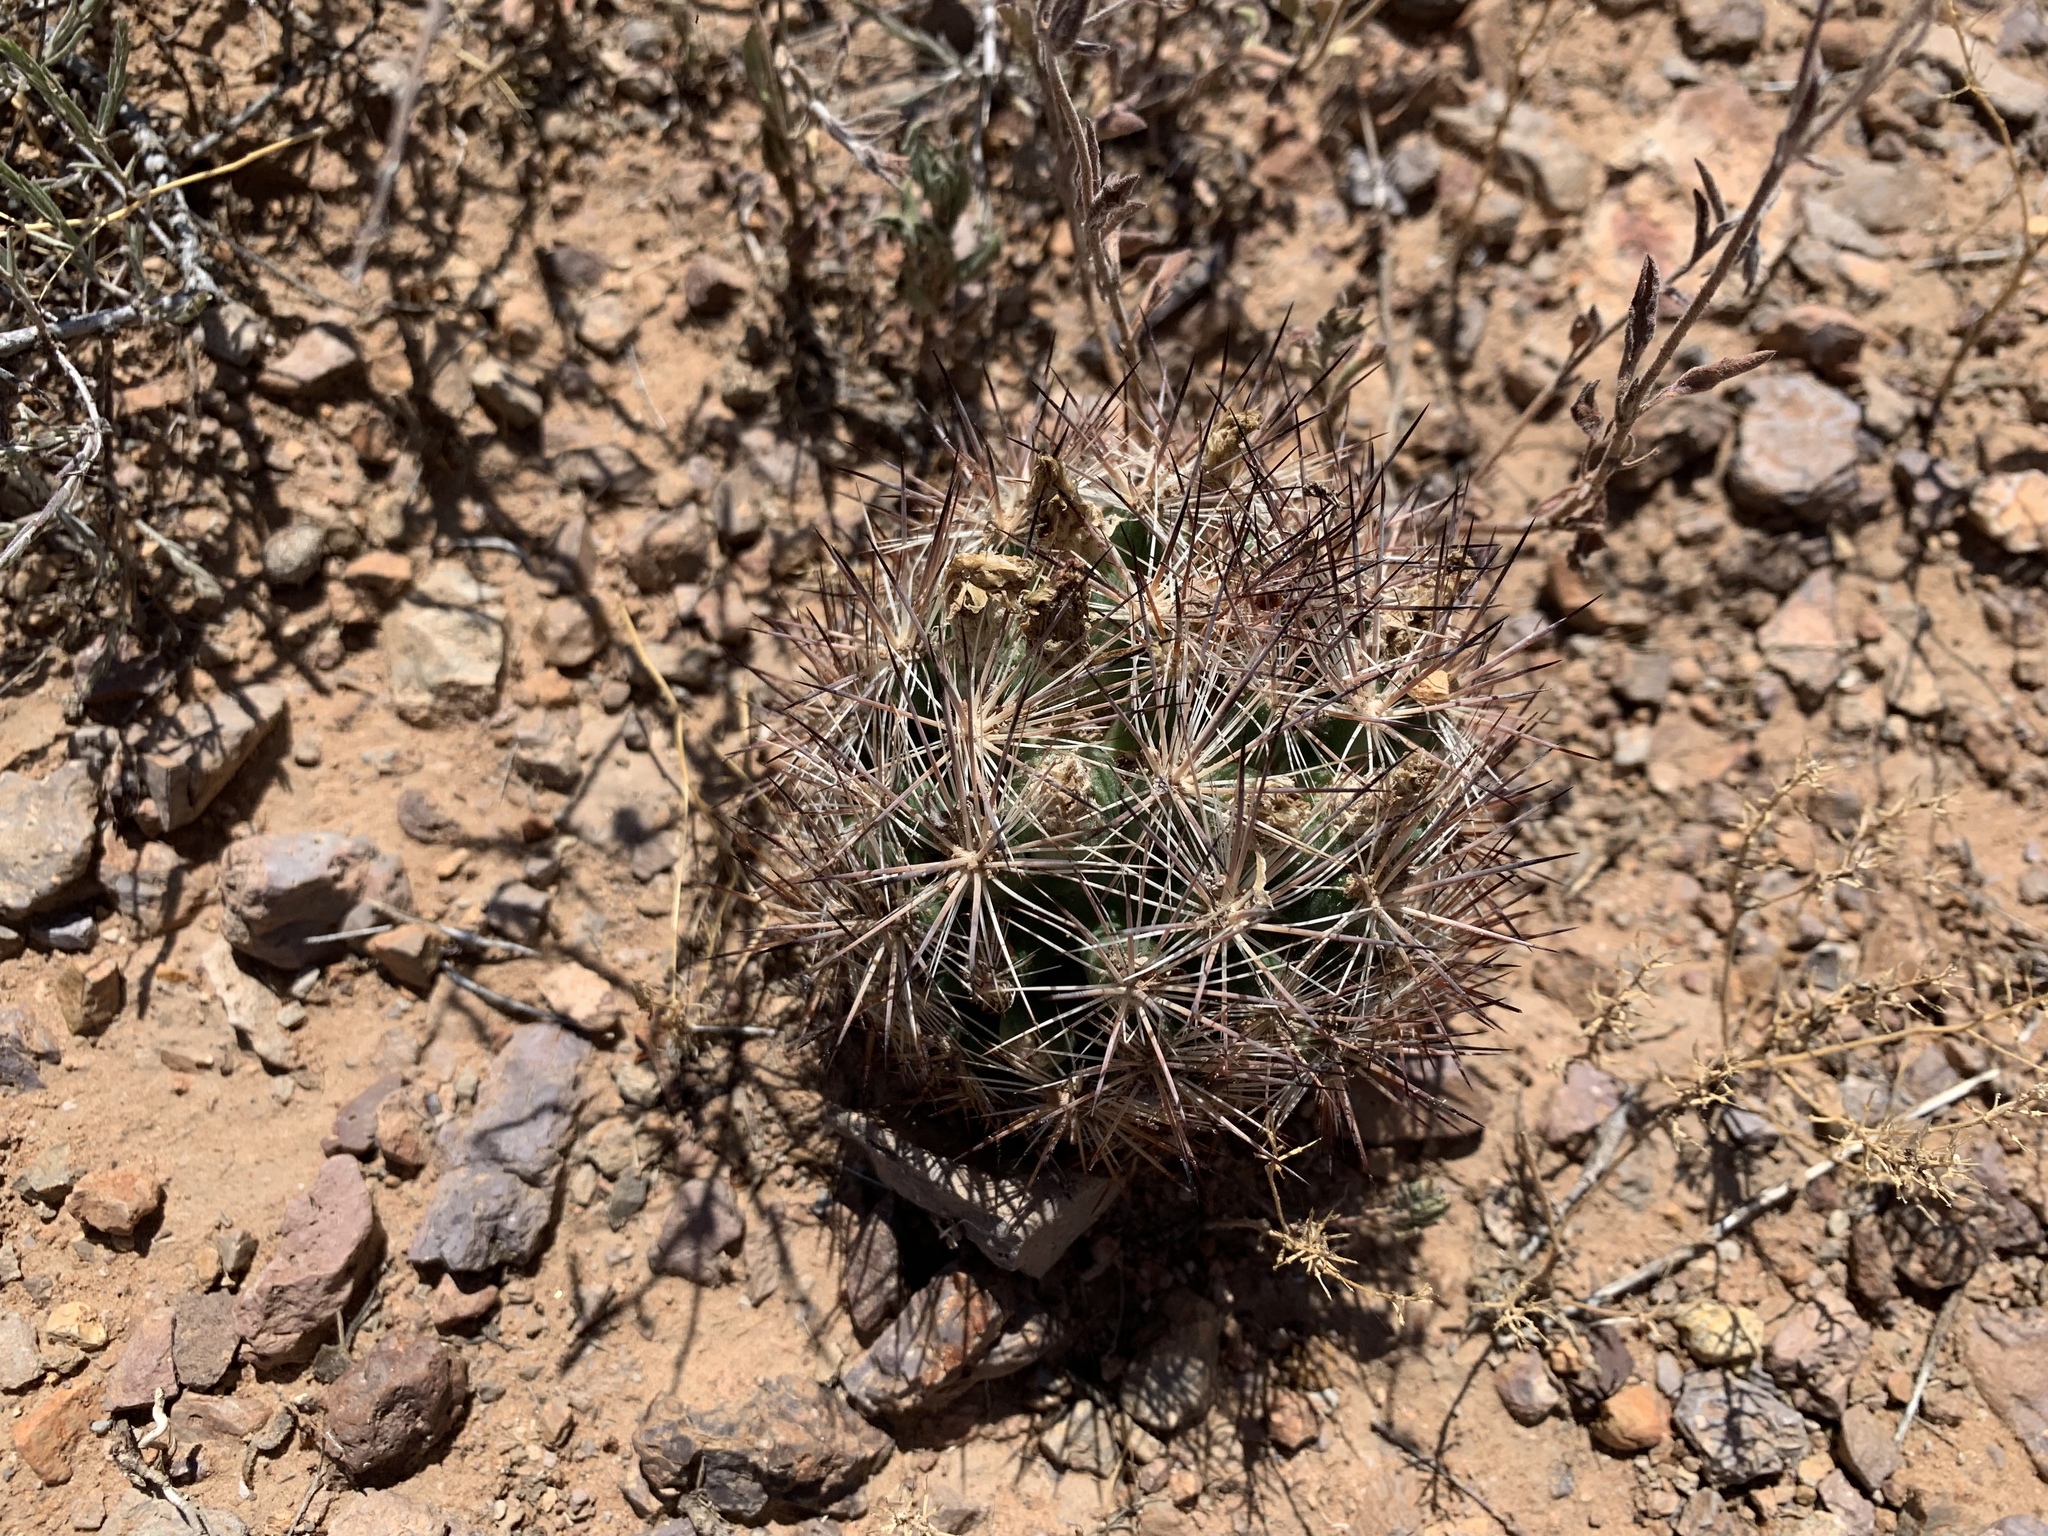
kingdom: Plantae
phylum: Tracheophyta
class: Magnoliopsida
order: Caryophyllales
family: Cactaceae
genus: Sclerocactus
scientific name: Sclerocactus intertextus
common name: White fish-hook cactus
